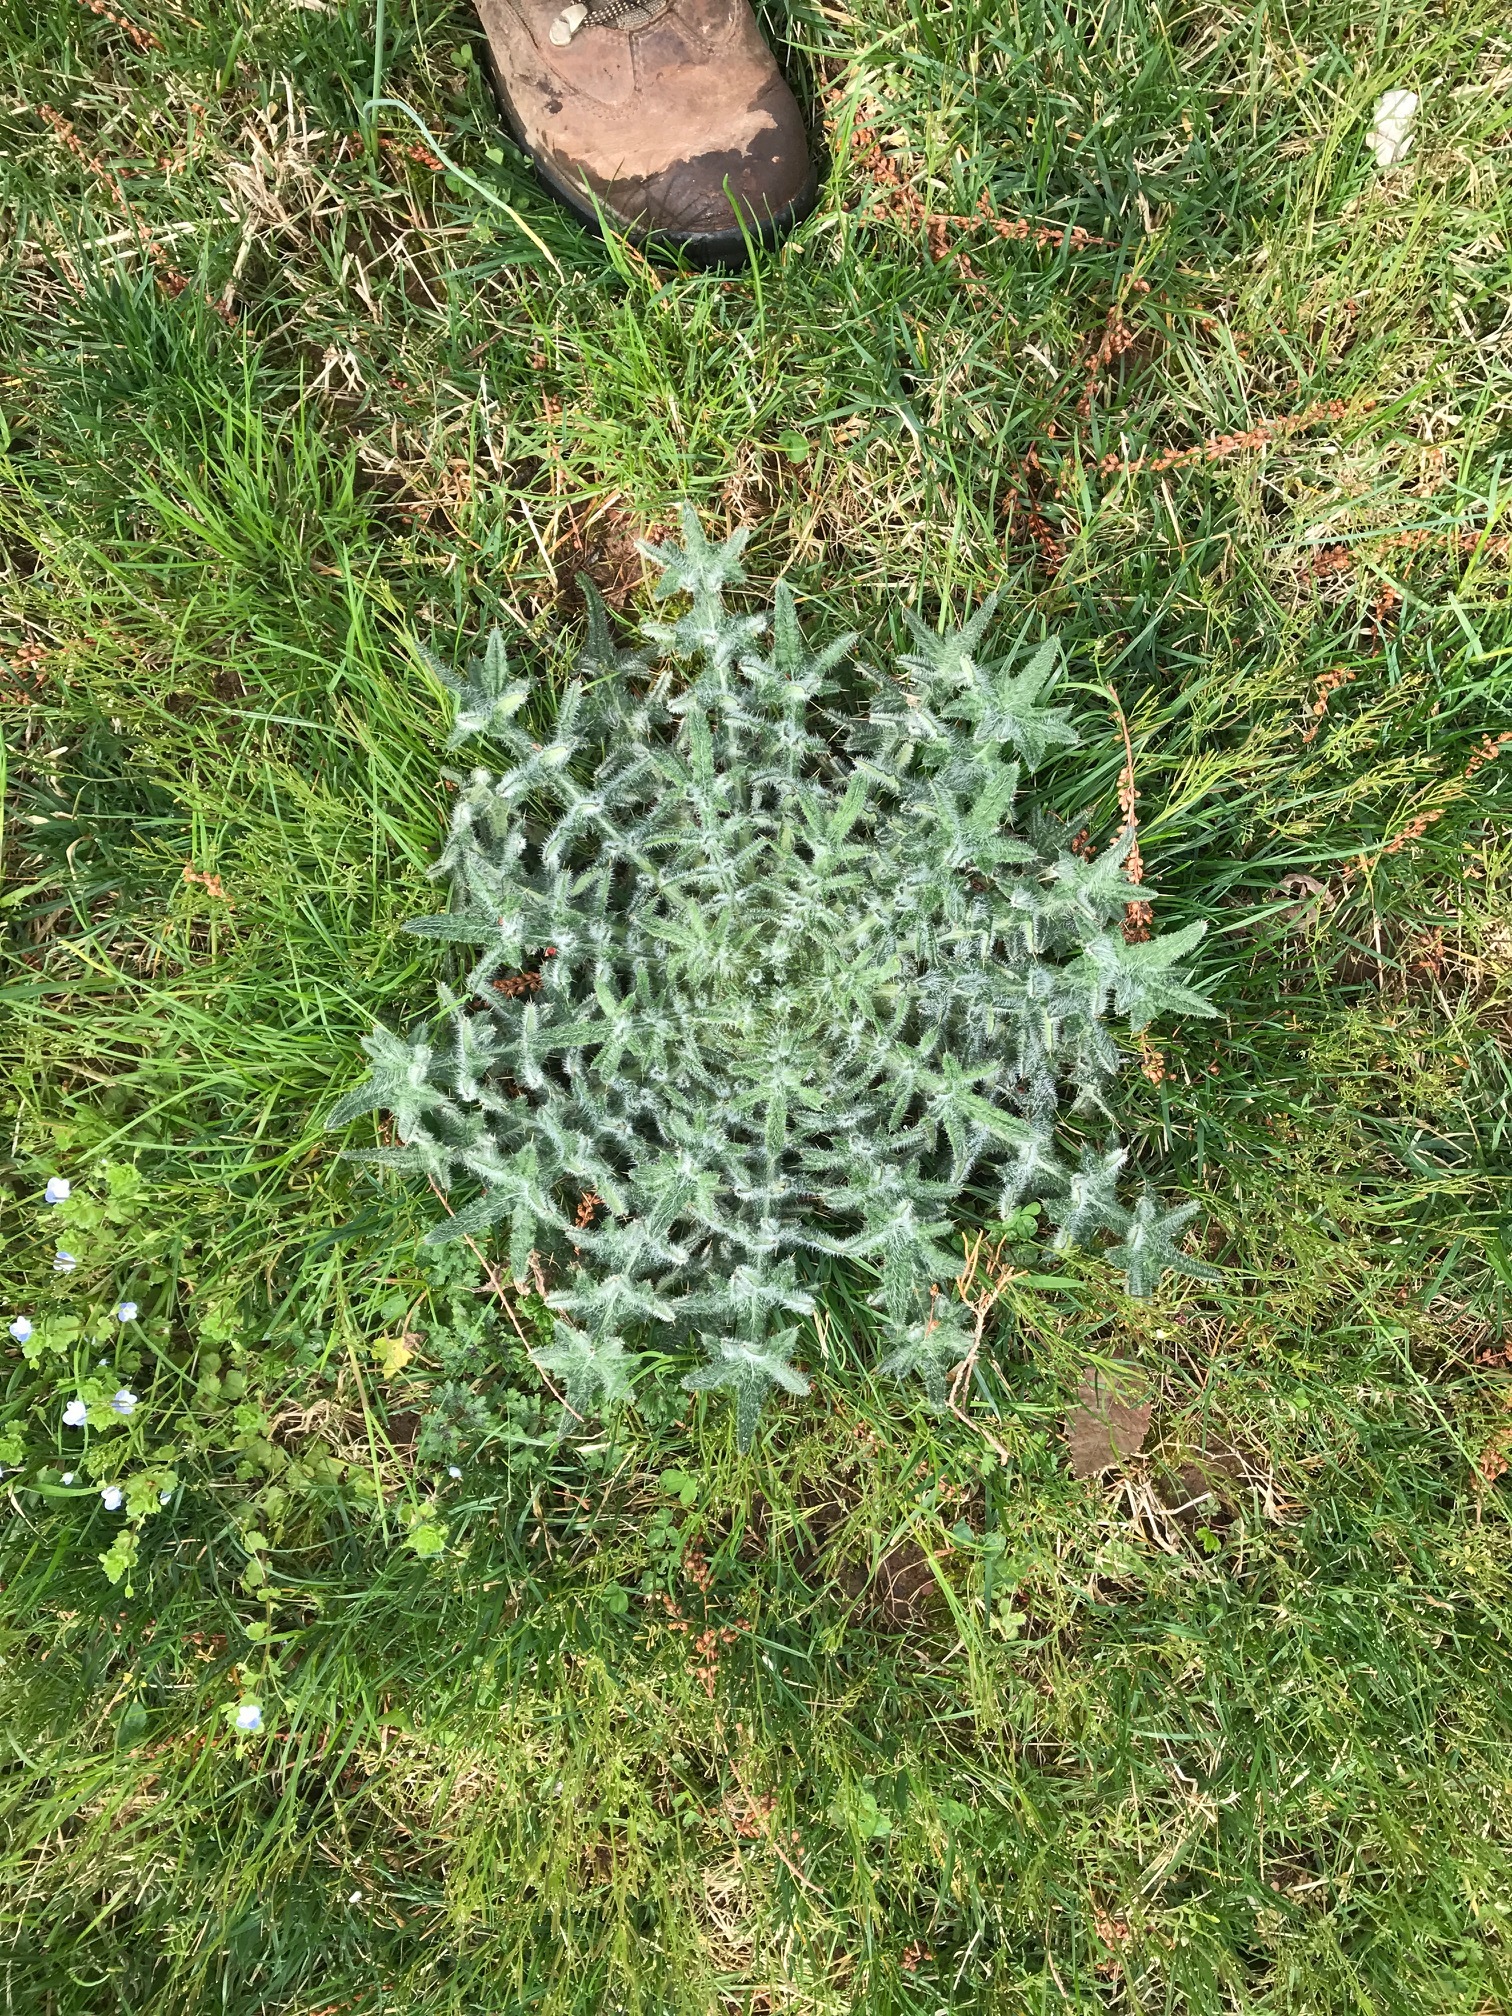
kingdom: Plantae
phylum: Tracheophyta
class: Magnoliopsida
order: Asterales
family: Asteraceae
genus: Cirsium
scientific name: Cirsium vulgare
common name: Bull thistle
